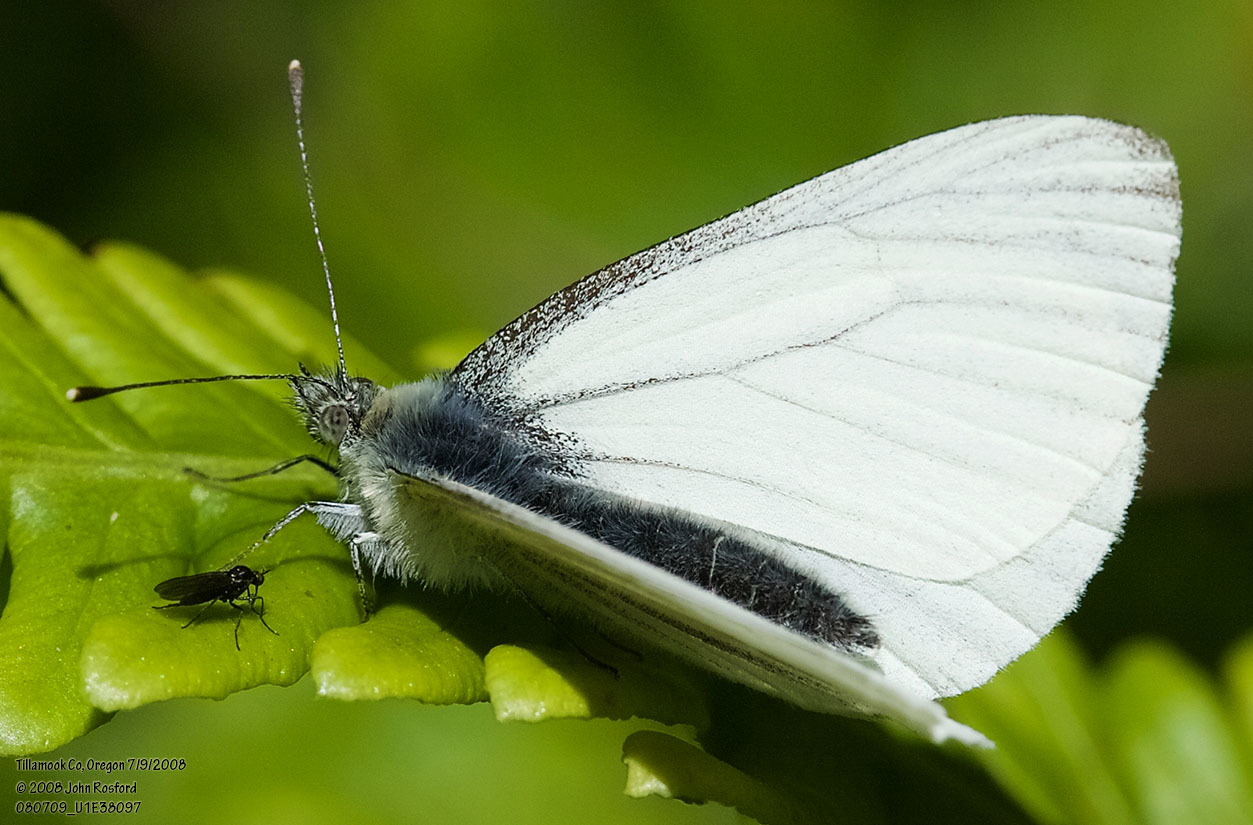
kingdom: Animalia
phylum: Arthropoda
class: Insecta
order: Lepidoptera
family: Pieridae
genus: Pieris
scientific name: Pieris marginalis
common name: Margined white
